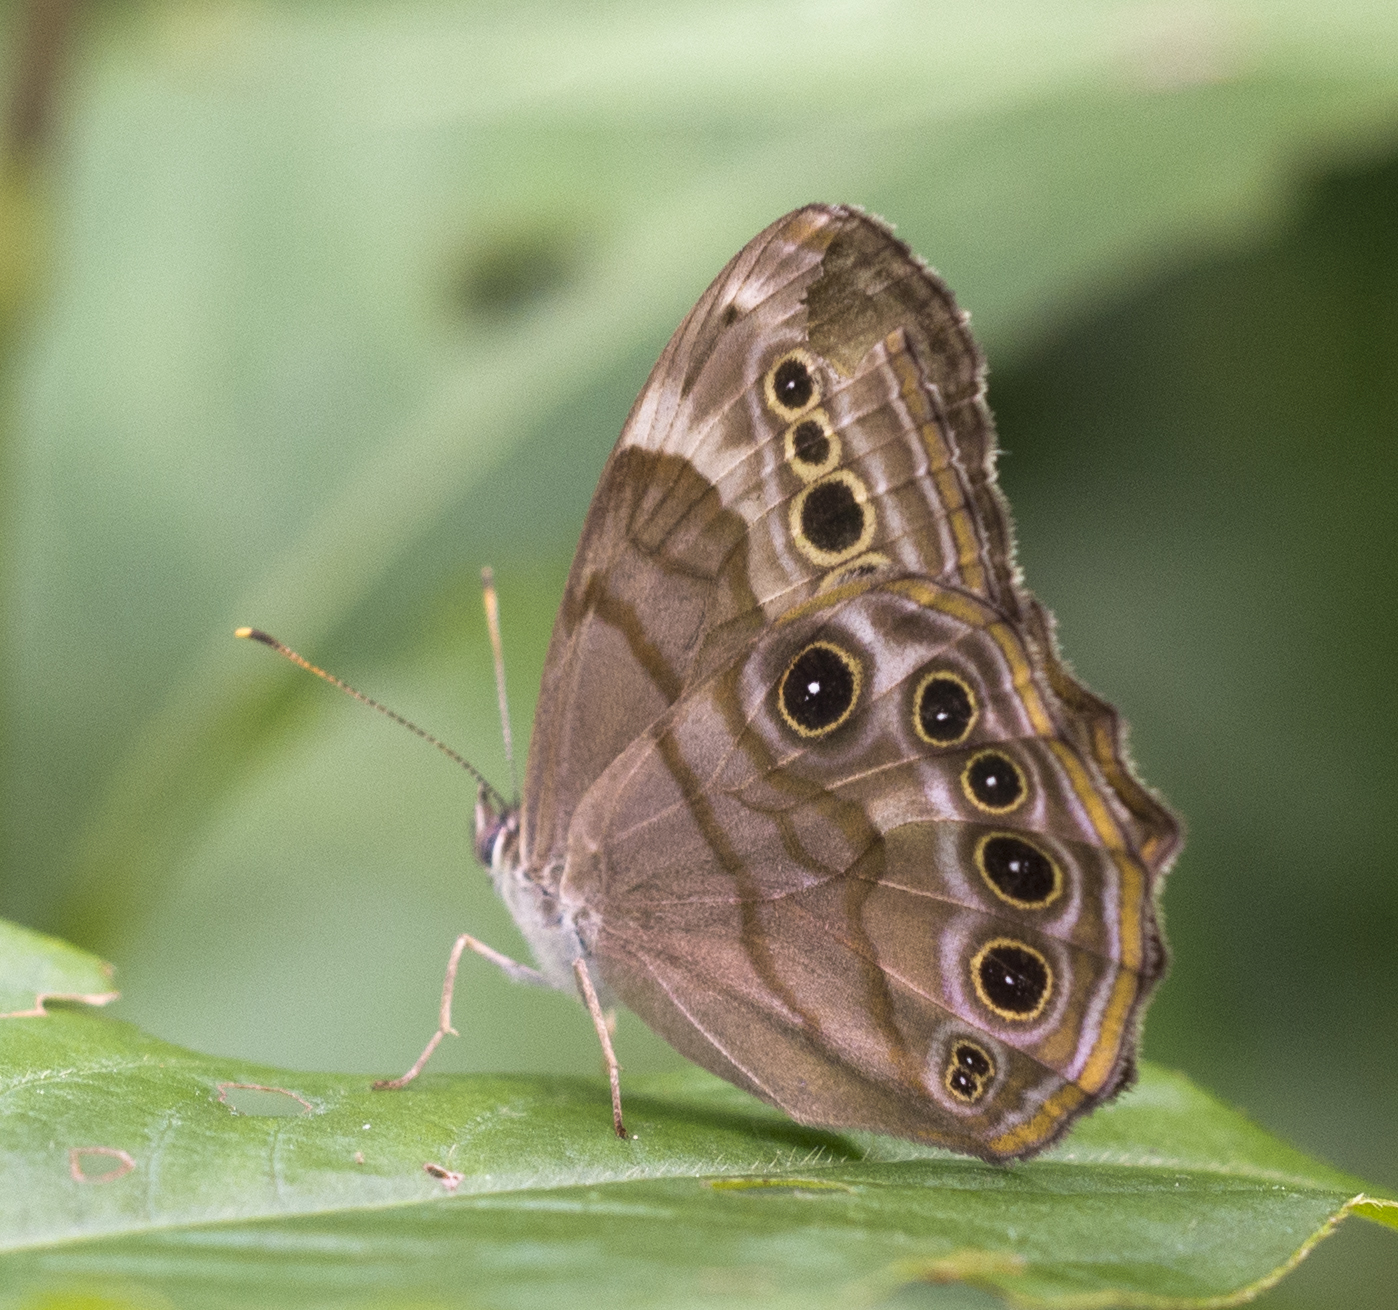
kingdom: Animalia
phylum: Arthropoda
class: Insecta
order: Lepidoptera
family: Nymphalidae
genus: Lethe
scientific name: Lethe anthedon
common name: Northern pearly-eye
